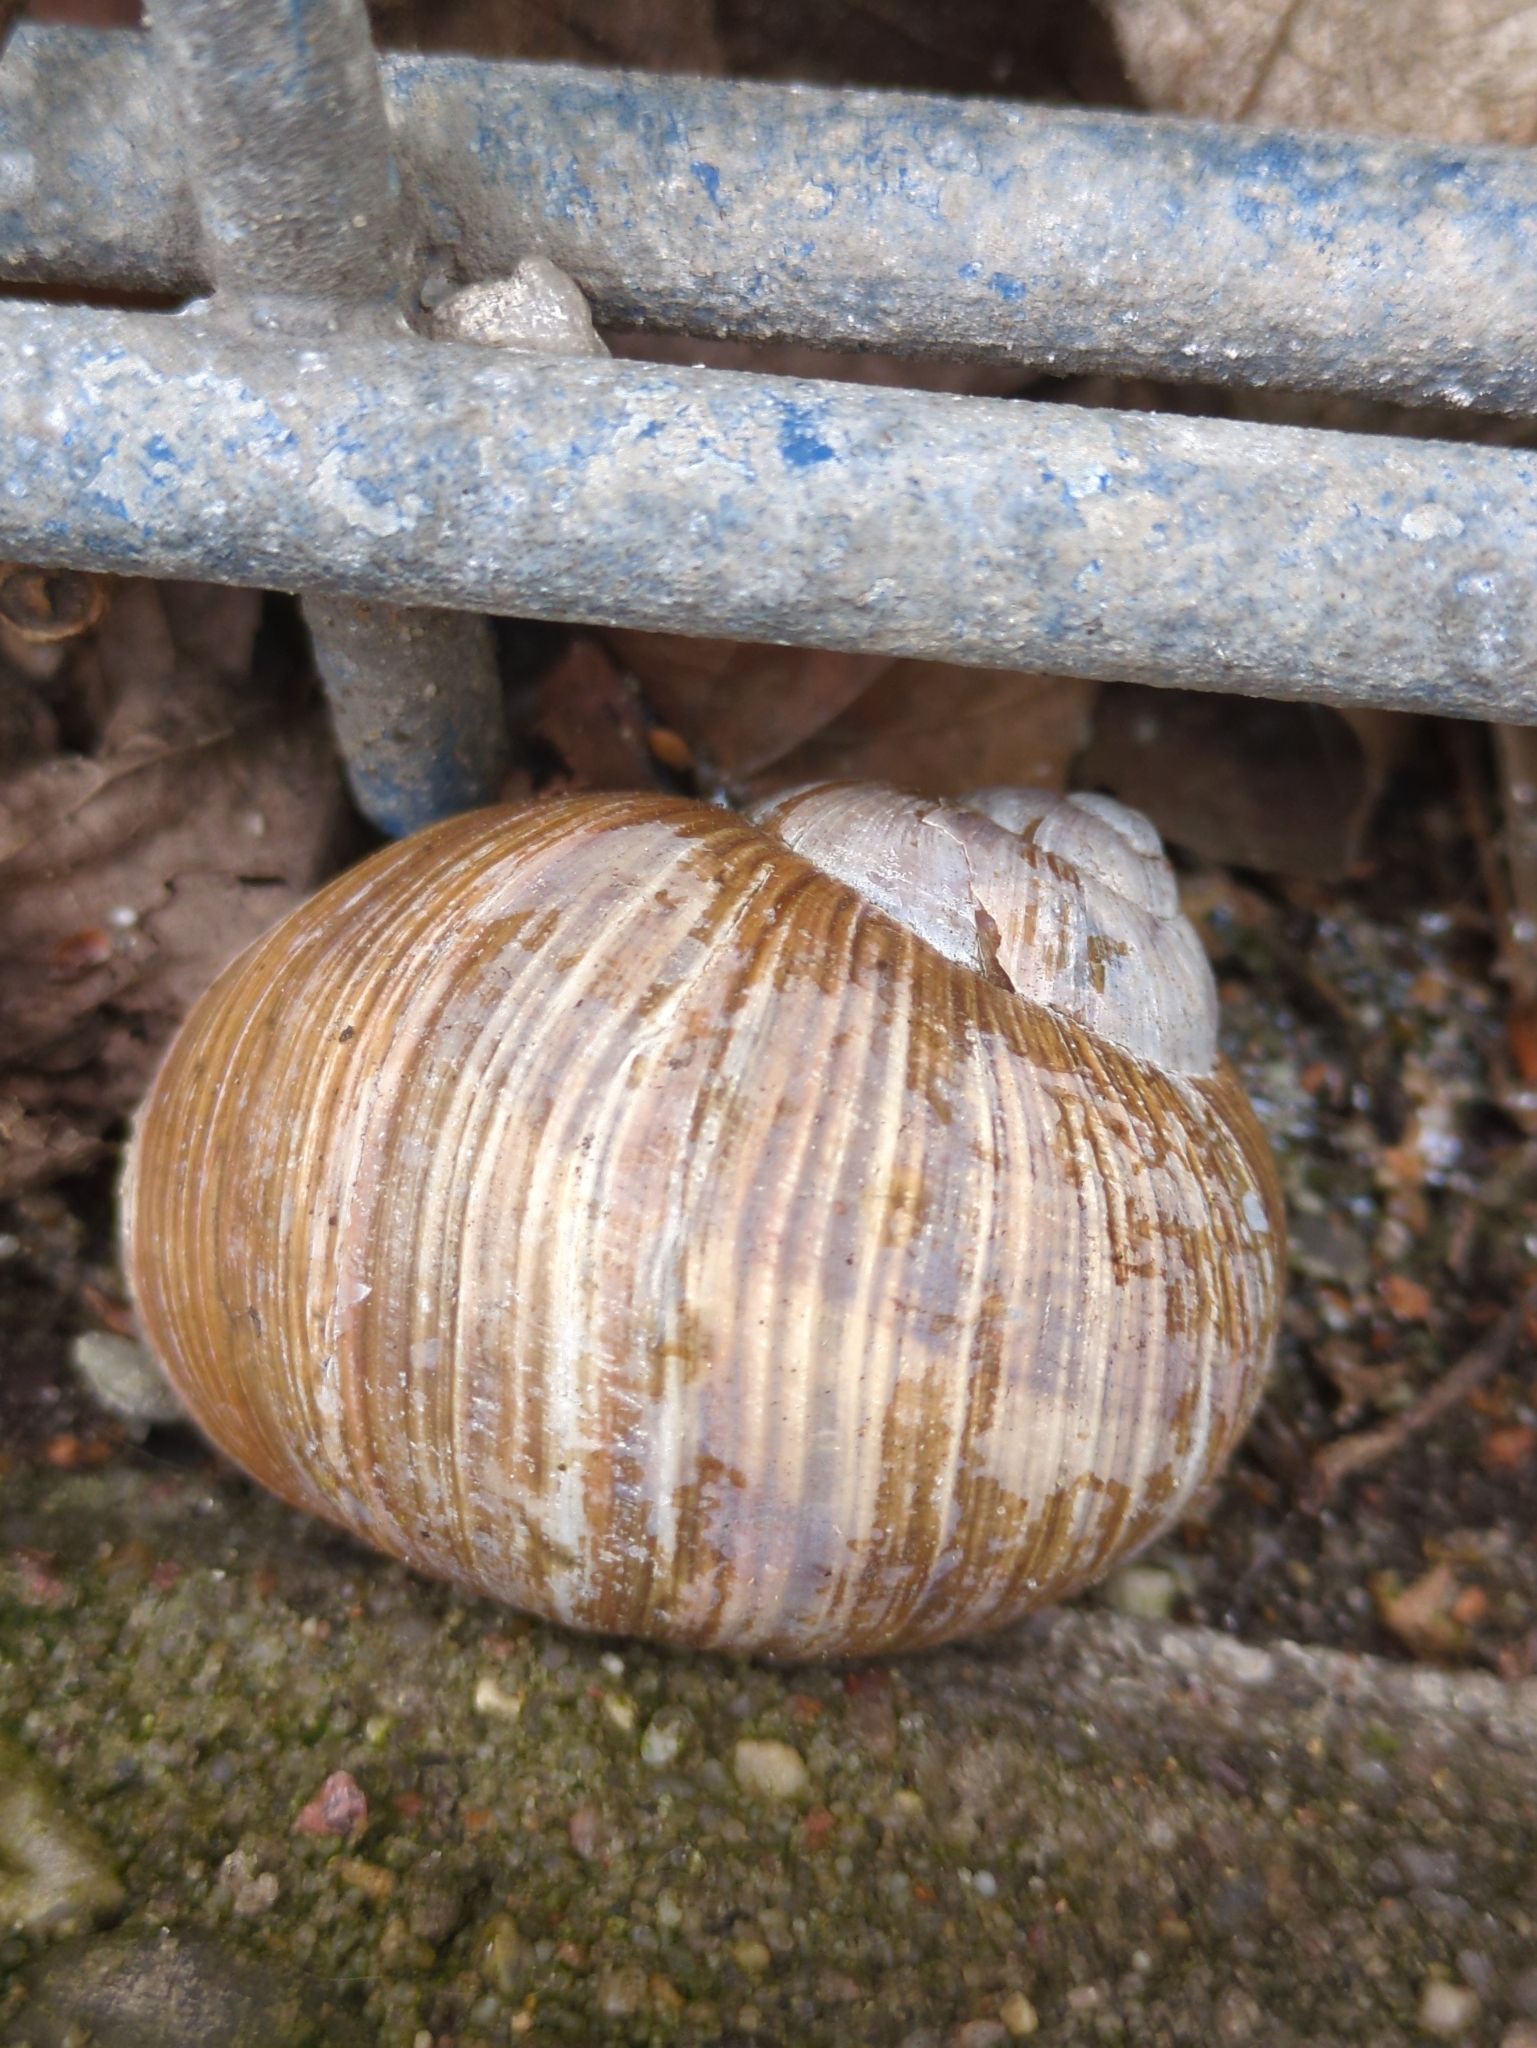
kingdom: Animalia
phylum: Mollusca
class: Gastropoda
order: Stylommatophora
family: Helicidae
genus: Helix
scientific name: Helix pomatia
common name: Roman snail
